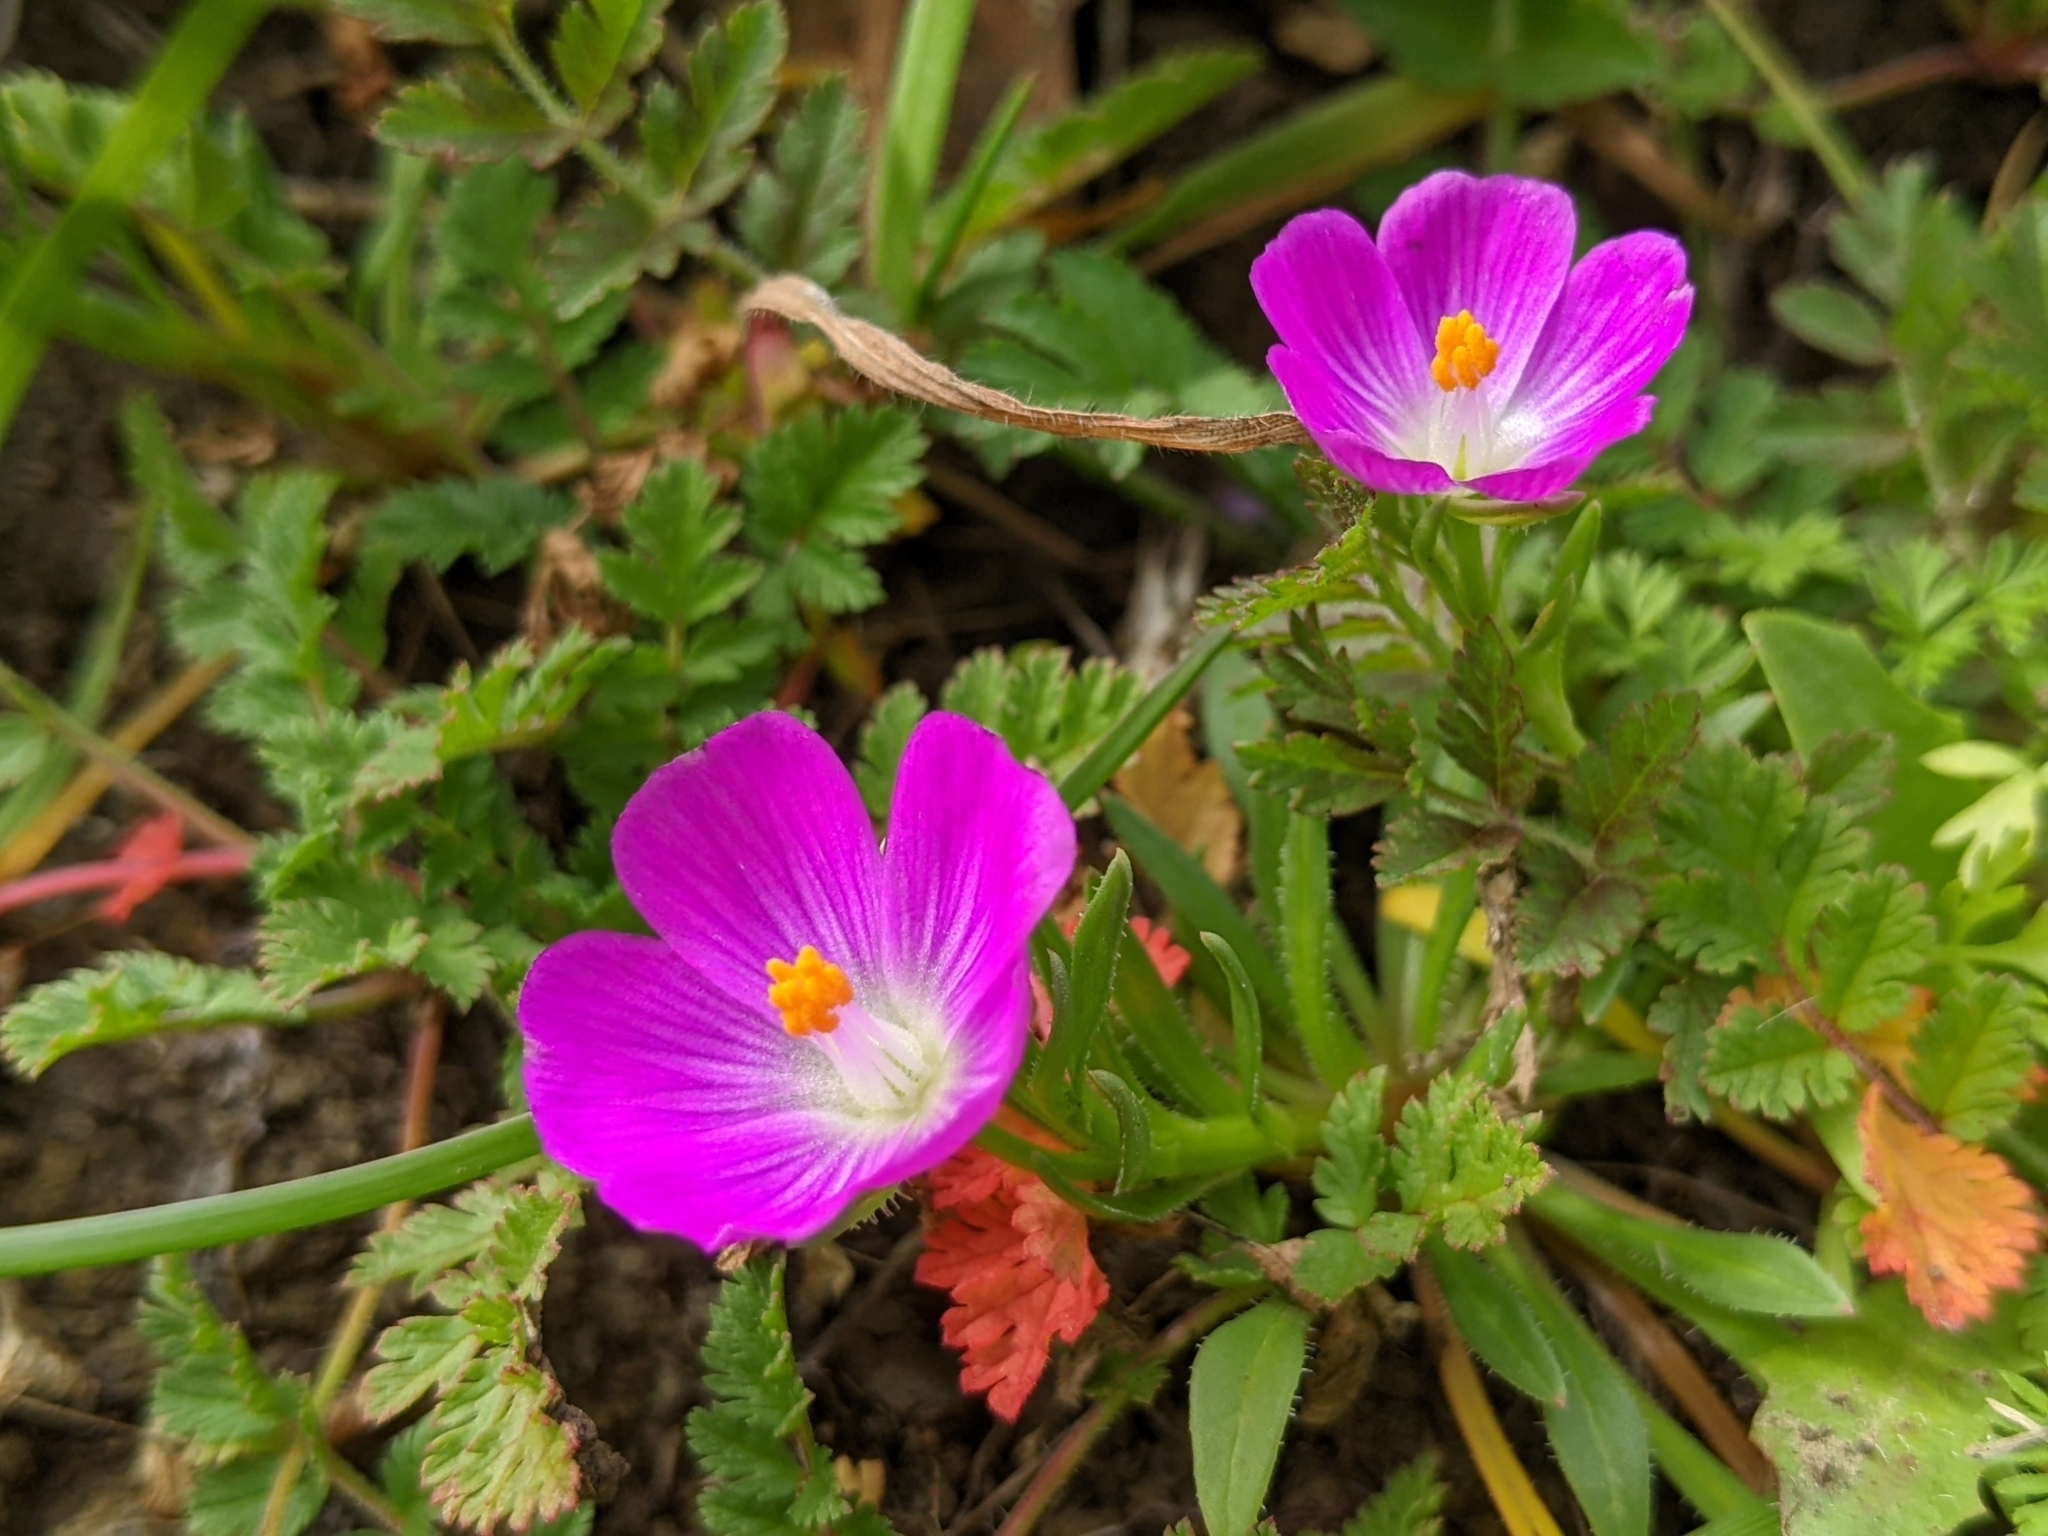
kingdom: Plantae
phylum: Tracheophyta
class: Magnoliopsida
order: Caryophyllales
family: Montiaceae
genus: Calandrinia
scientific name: Calandrinia menziesii
